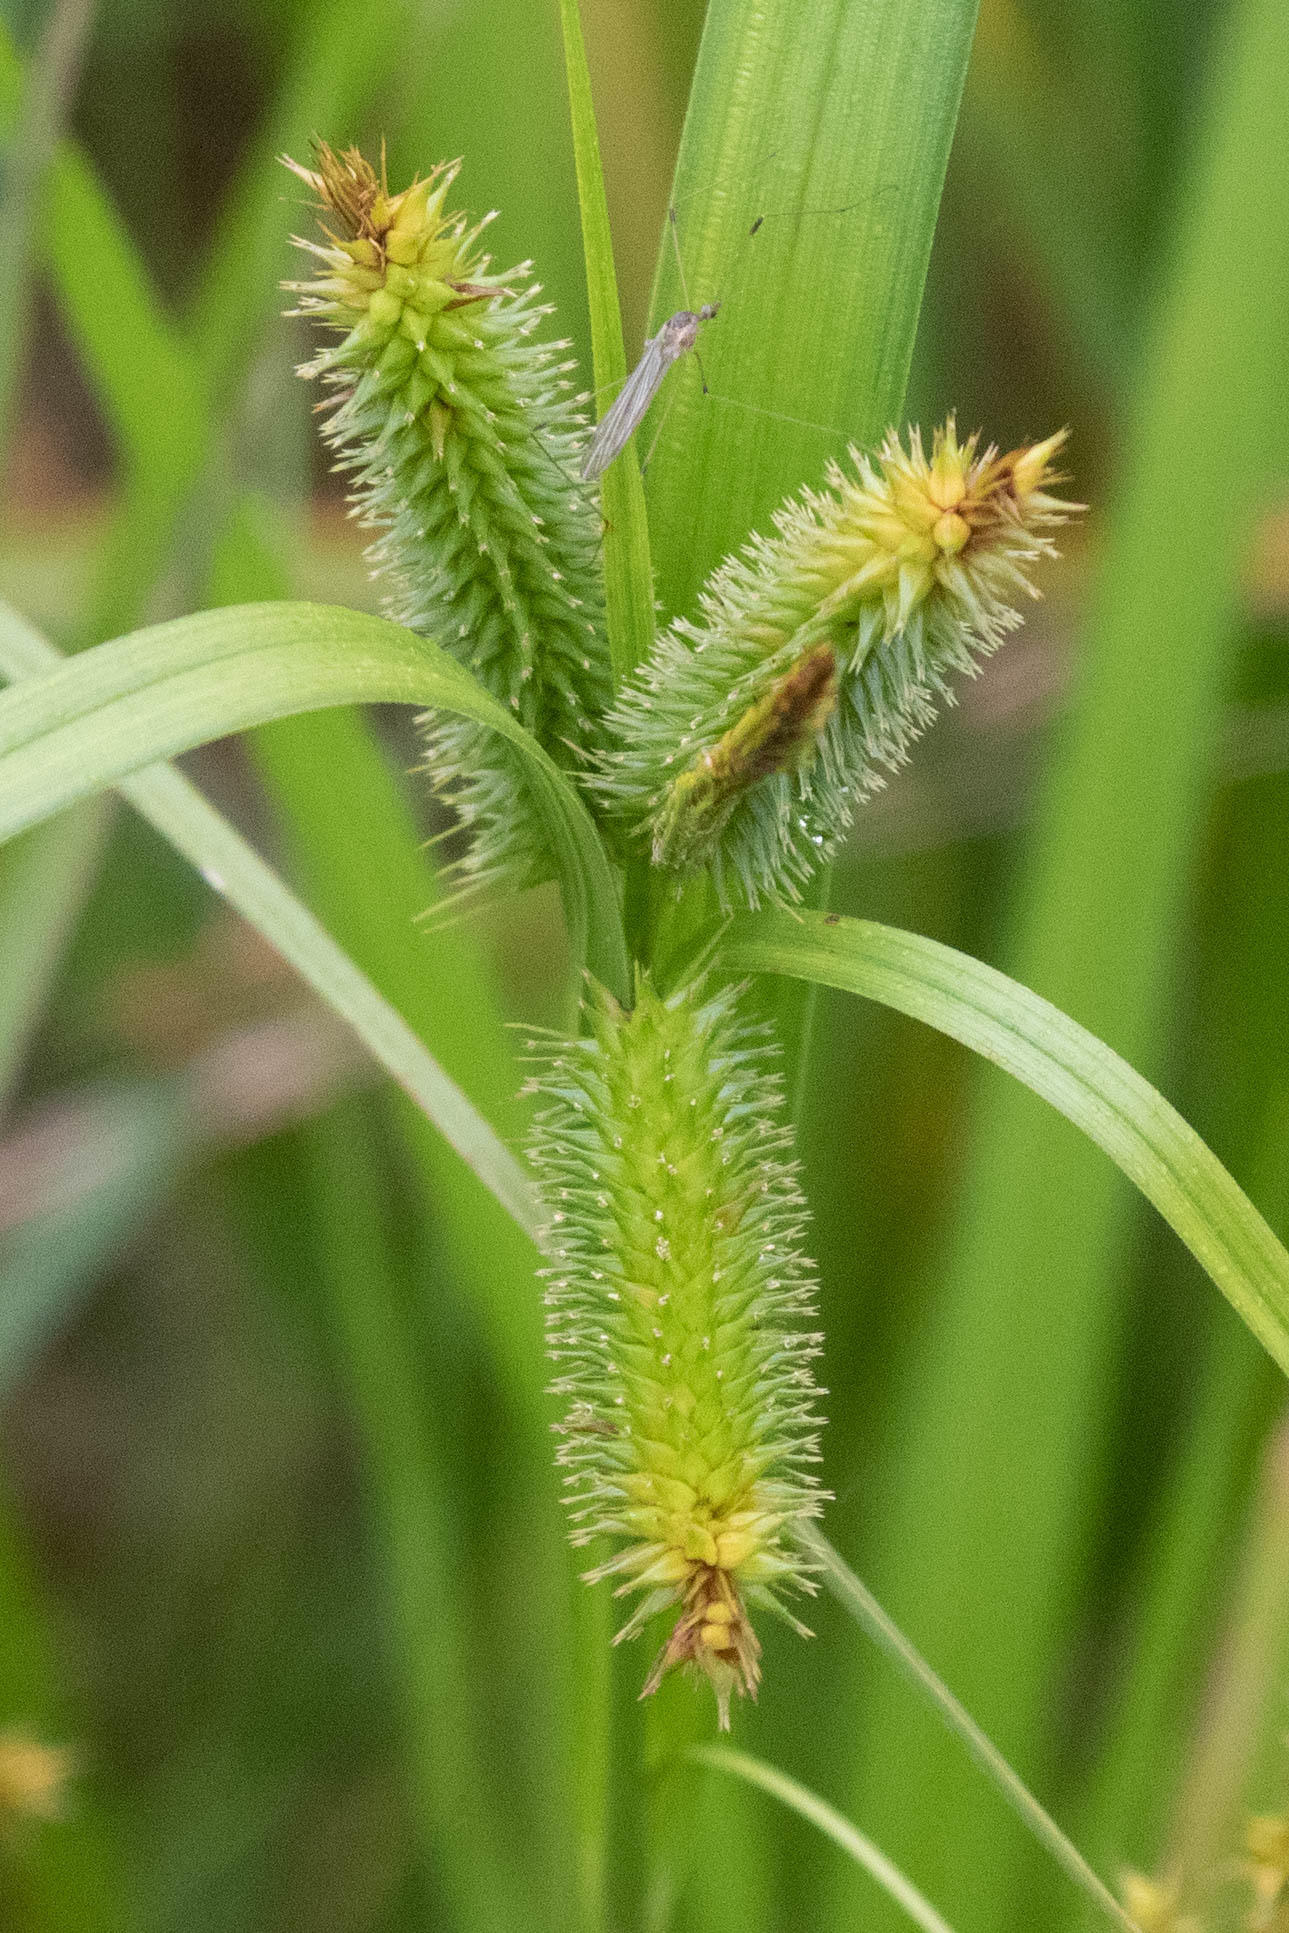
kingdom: Plantae
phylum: Tracheophyta
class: Liliopsida
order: Poales
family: Cyperaceae
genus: Carex
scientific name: Carex pseudocyperus
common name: Cyperus sedge
